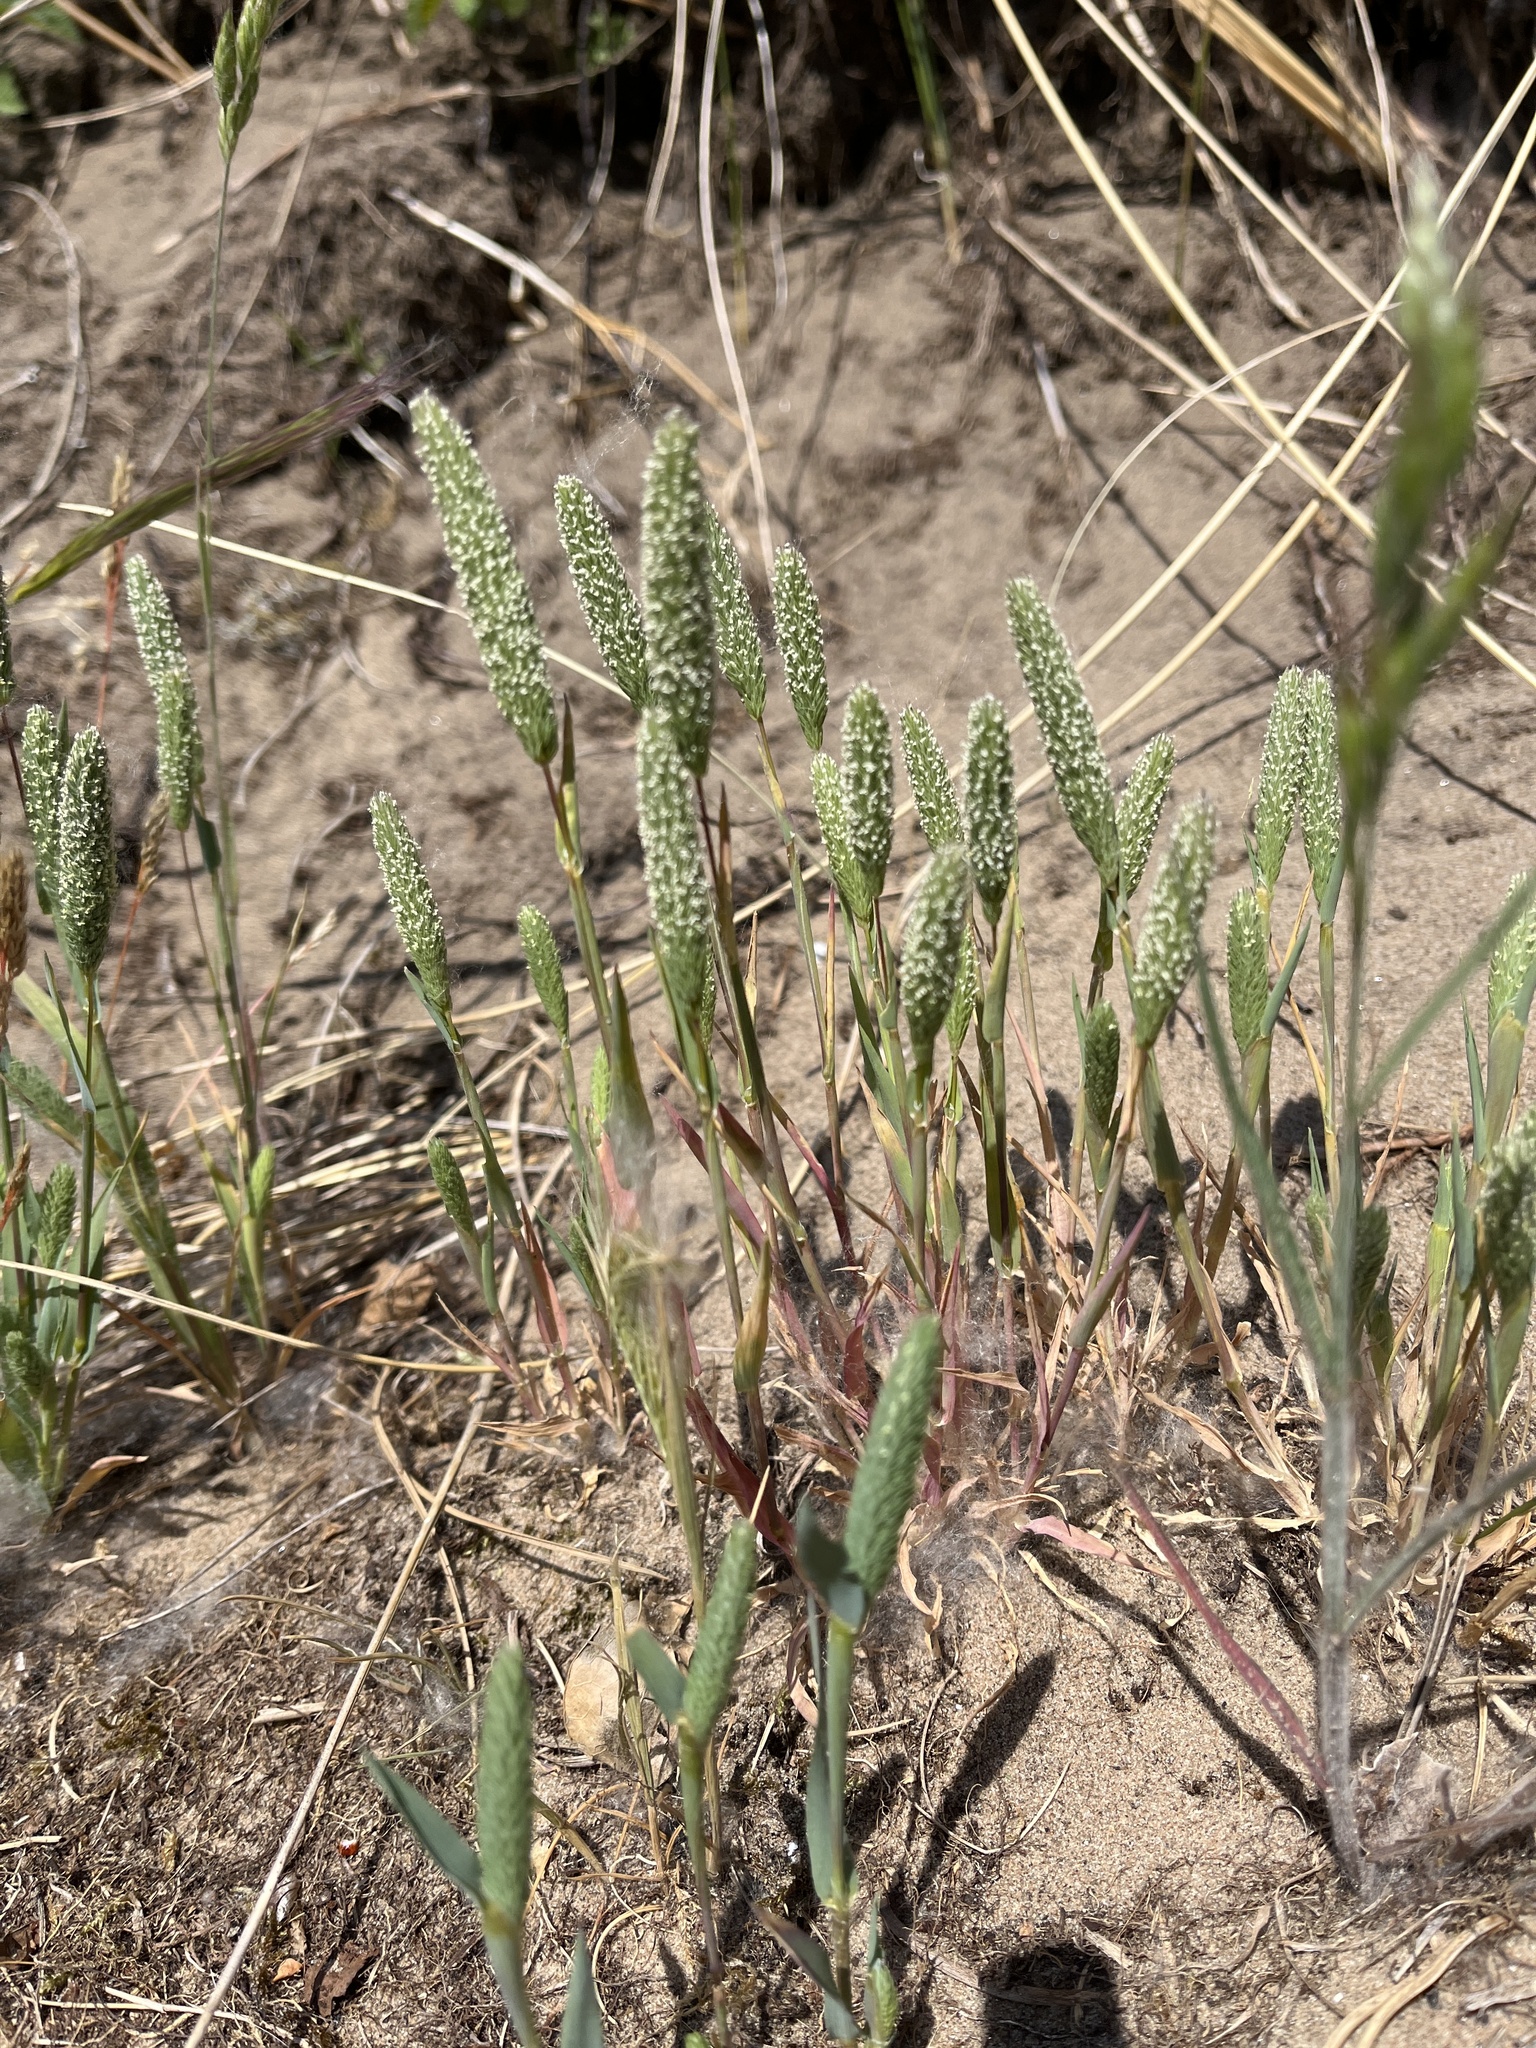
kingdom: Plantae
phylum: Tracheophyta
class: Liliopsida
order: Poales
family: Poaceae
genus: Phleum
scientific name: Phleum arenarium
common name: Sand cat's-tail
